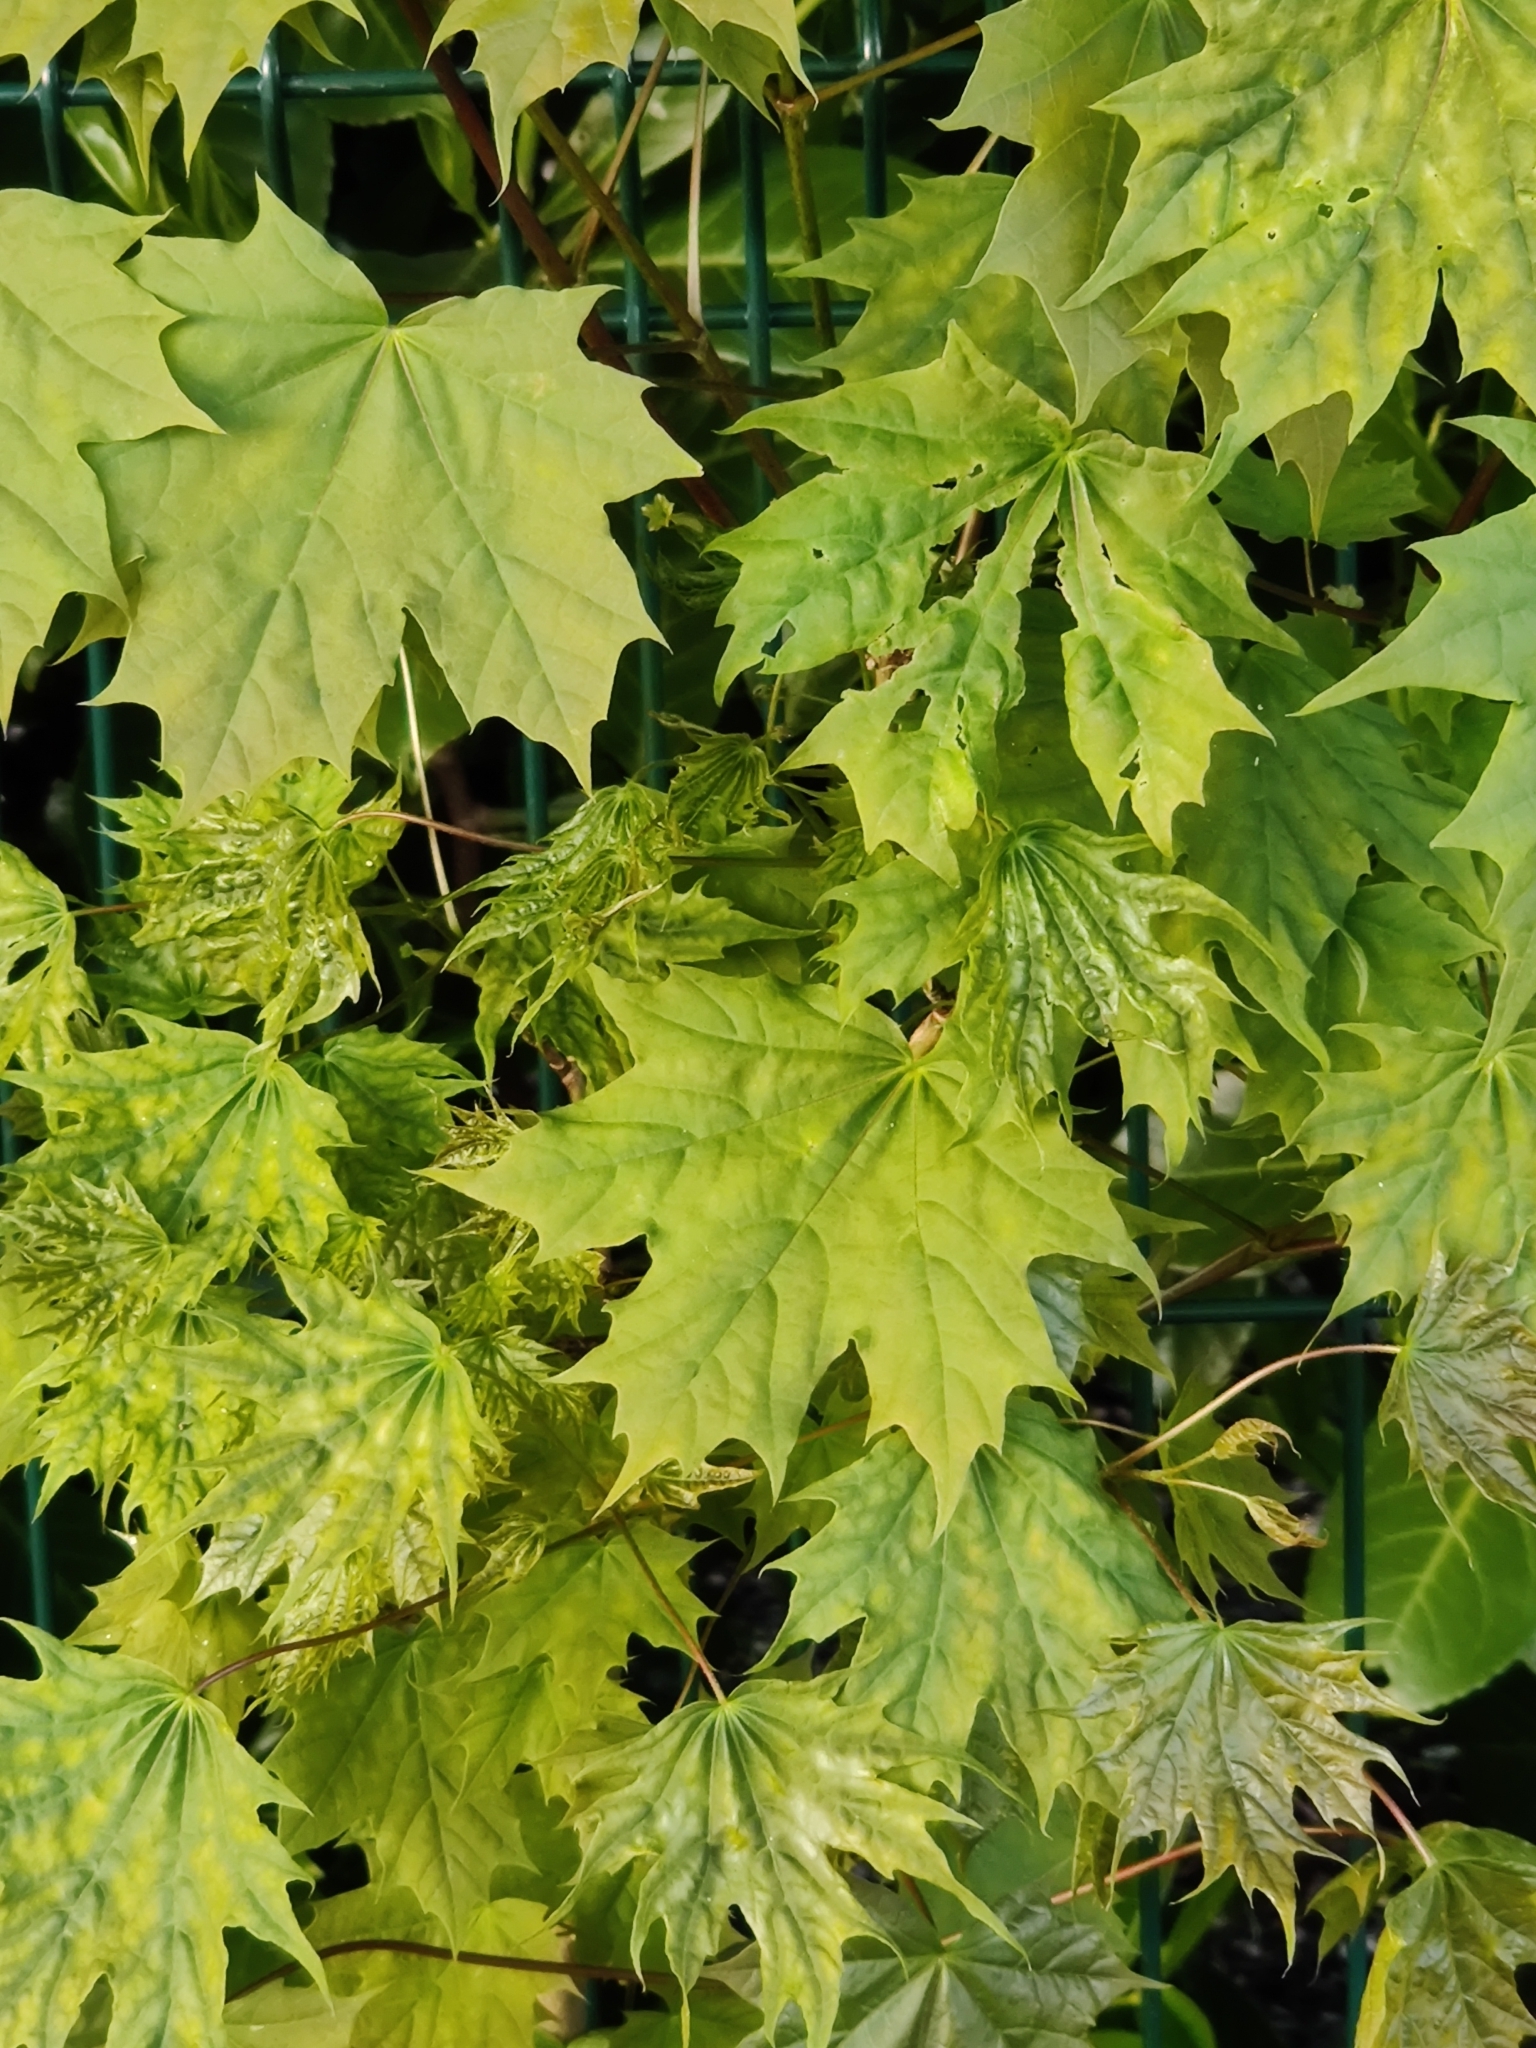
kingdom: Plantae
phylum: Tracheophyta
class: Magnoliopsida
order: Sapindales
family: Sapindaceae
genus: Acer
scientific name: Acer platanoides
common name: Norway maple
